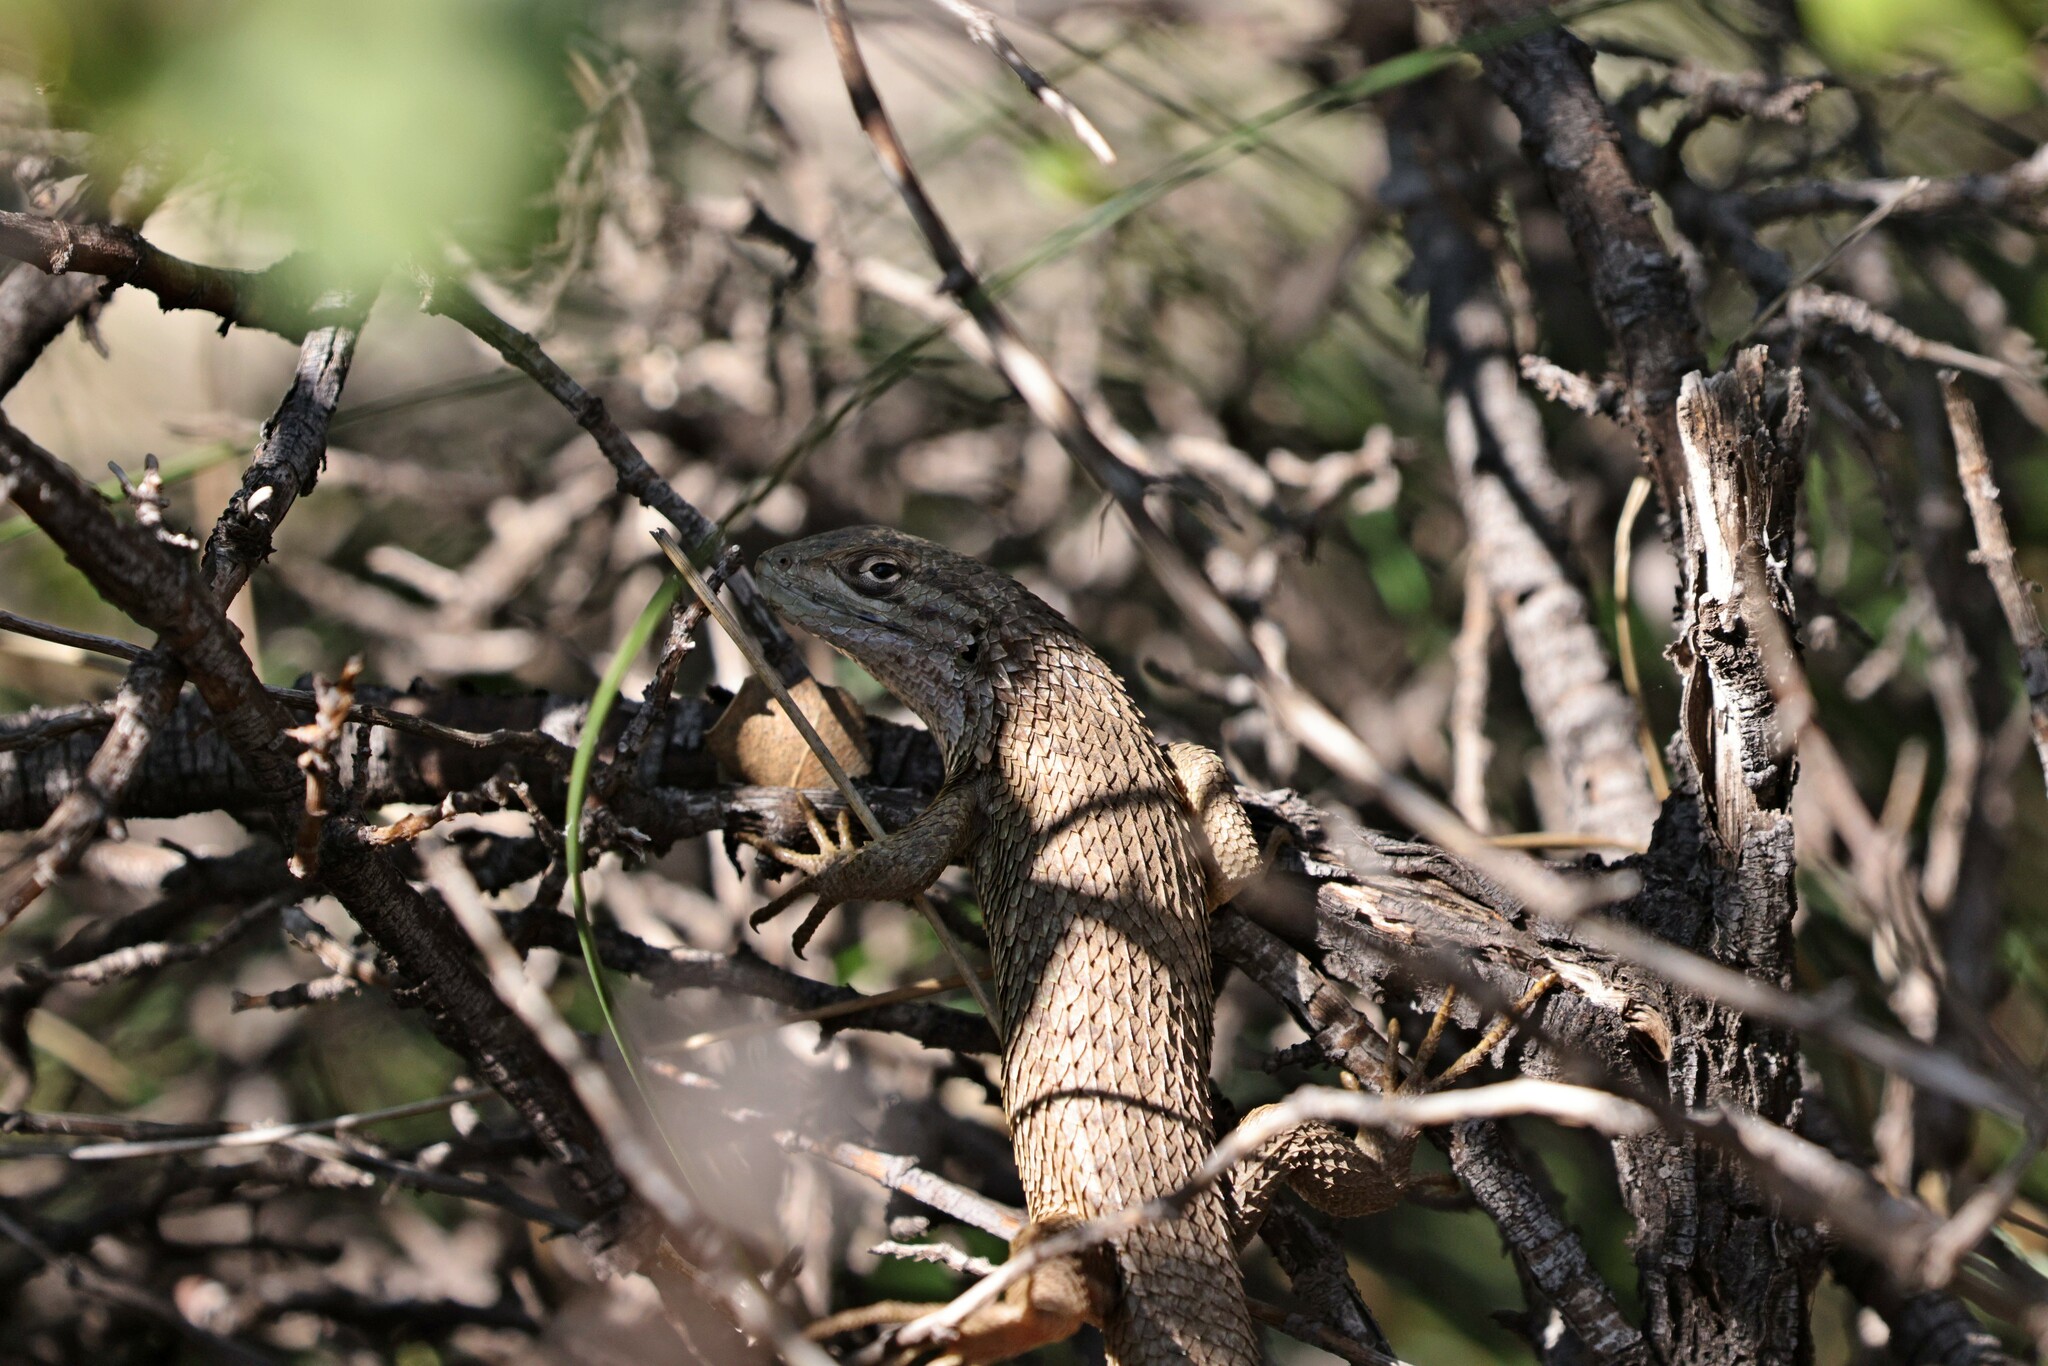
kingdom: Animalia
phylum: Chordata
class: Squamata
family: Liolaemidae
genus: Liolaemus
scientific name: Liolaemus chiliensis
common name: Chilean tree iguana
